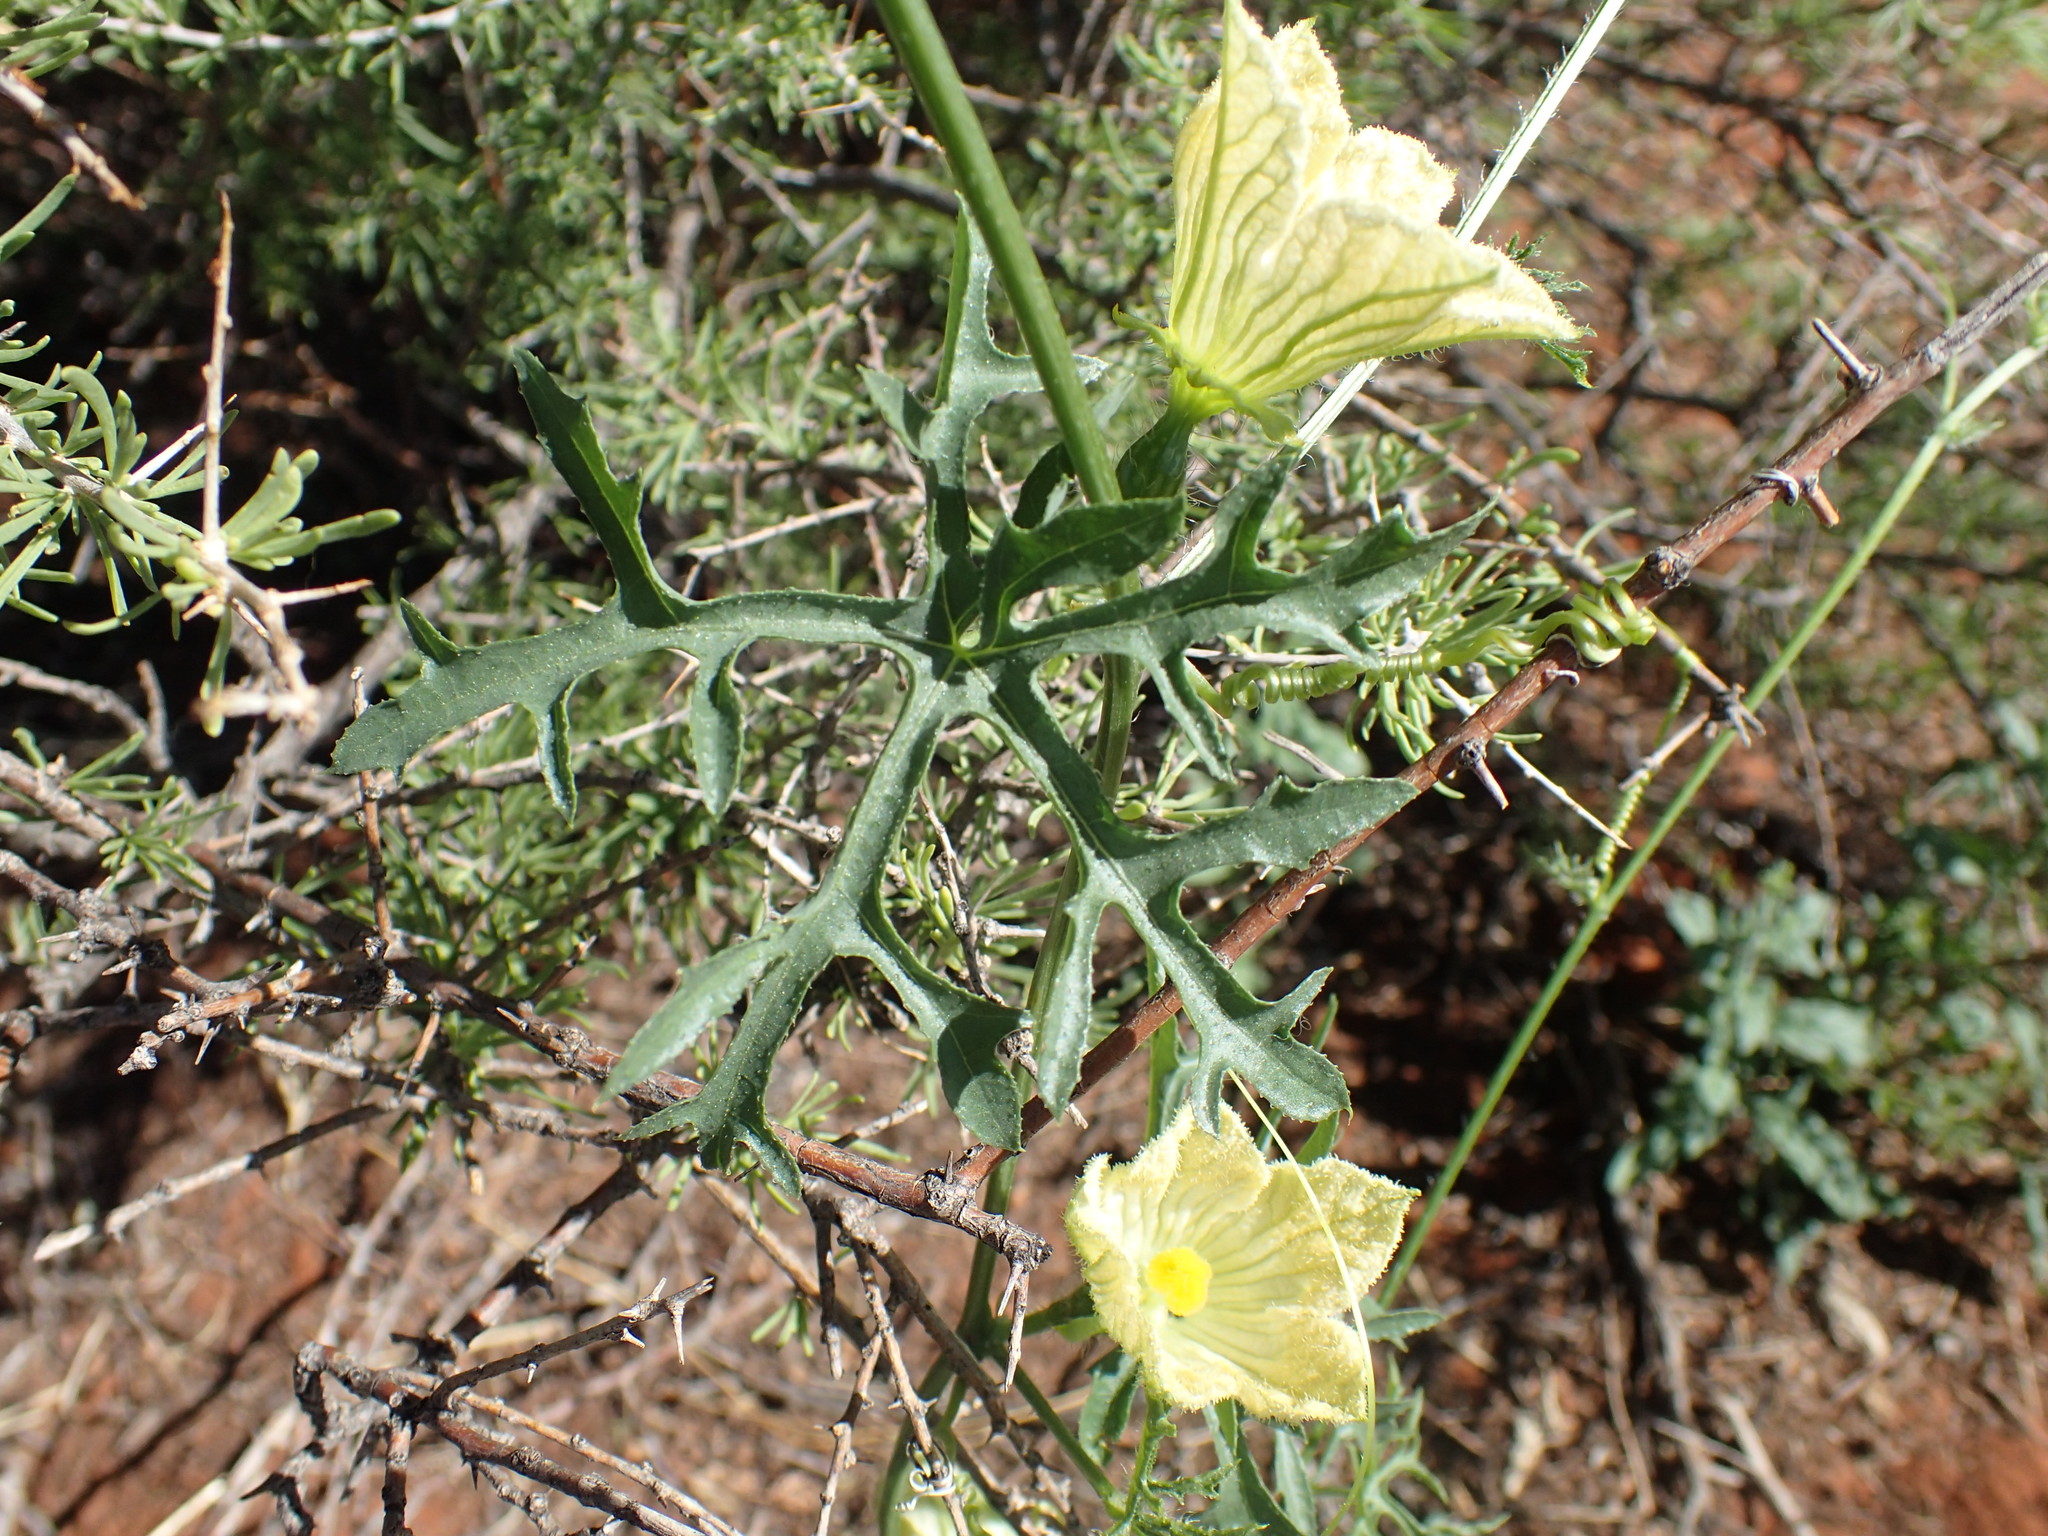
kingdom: Plantae
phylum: Tracheophyta
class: Magnoliopsida
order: Cucurbitales
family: Cucurbitaceae
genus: Coccinia
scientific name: Coccinia rehmannii
